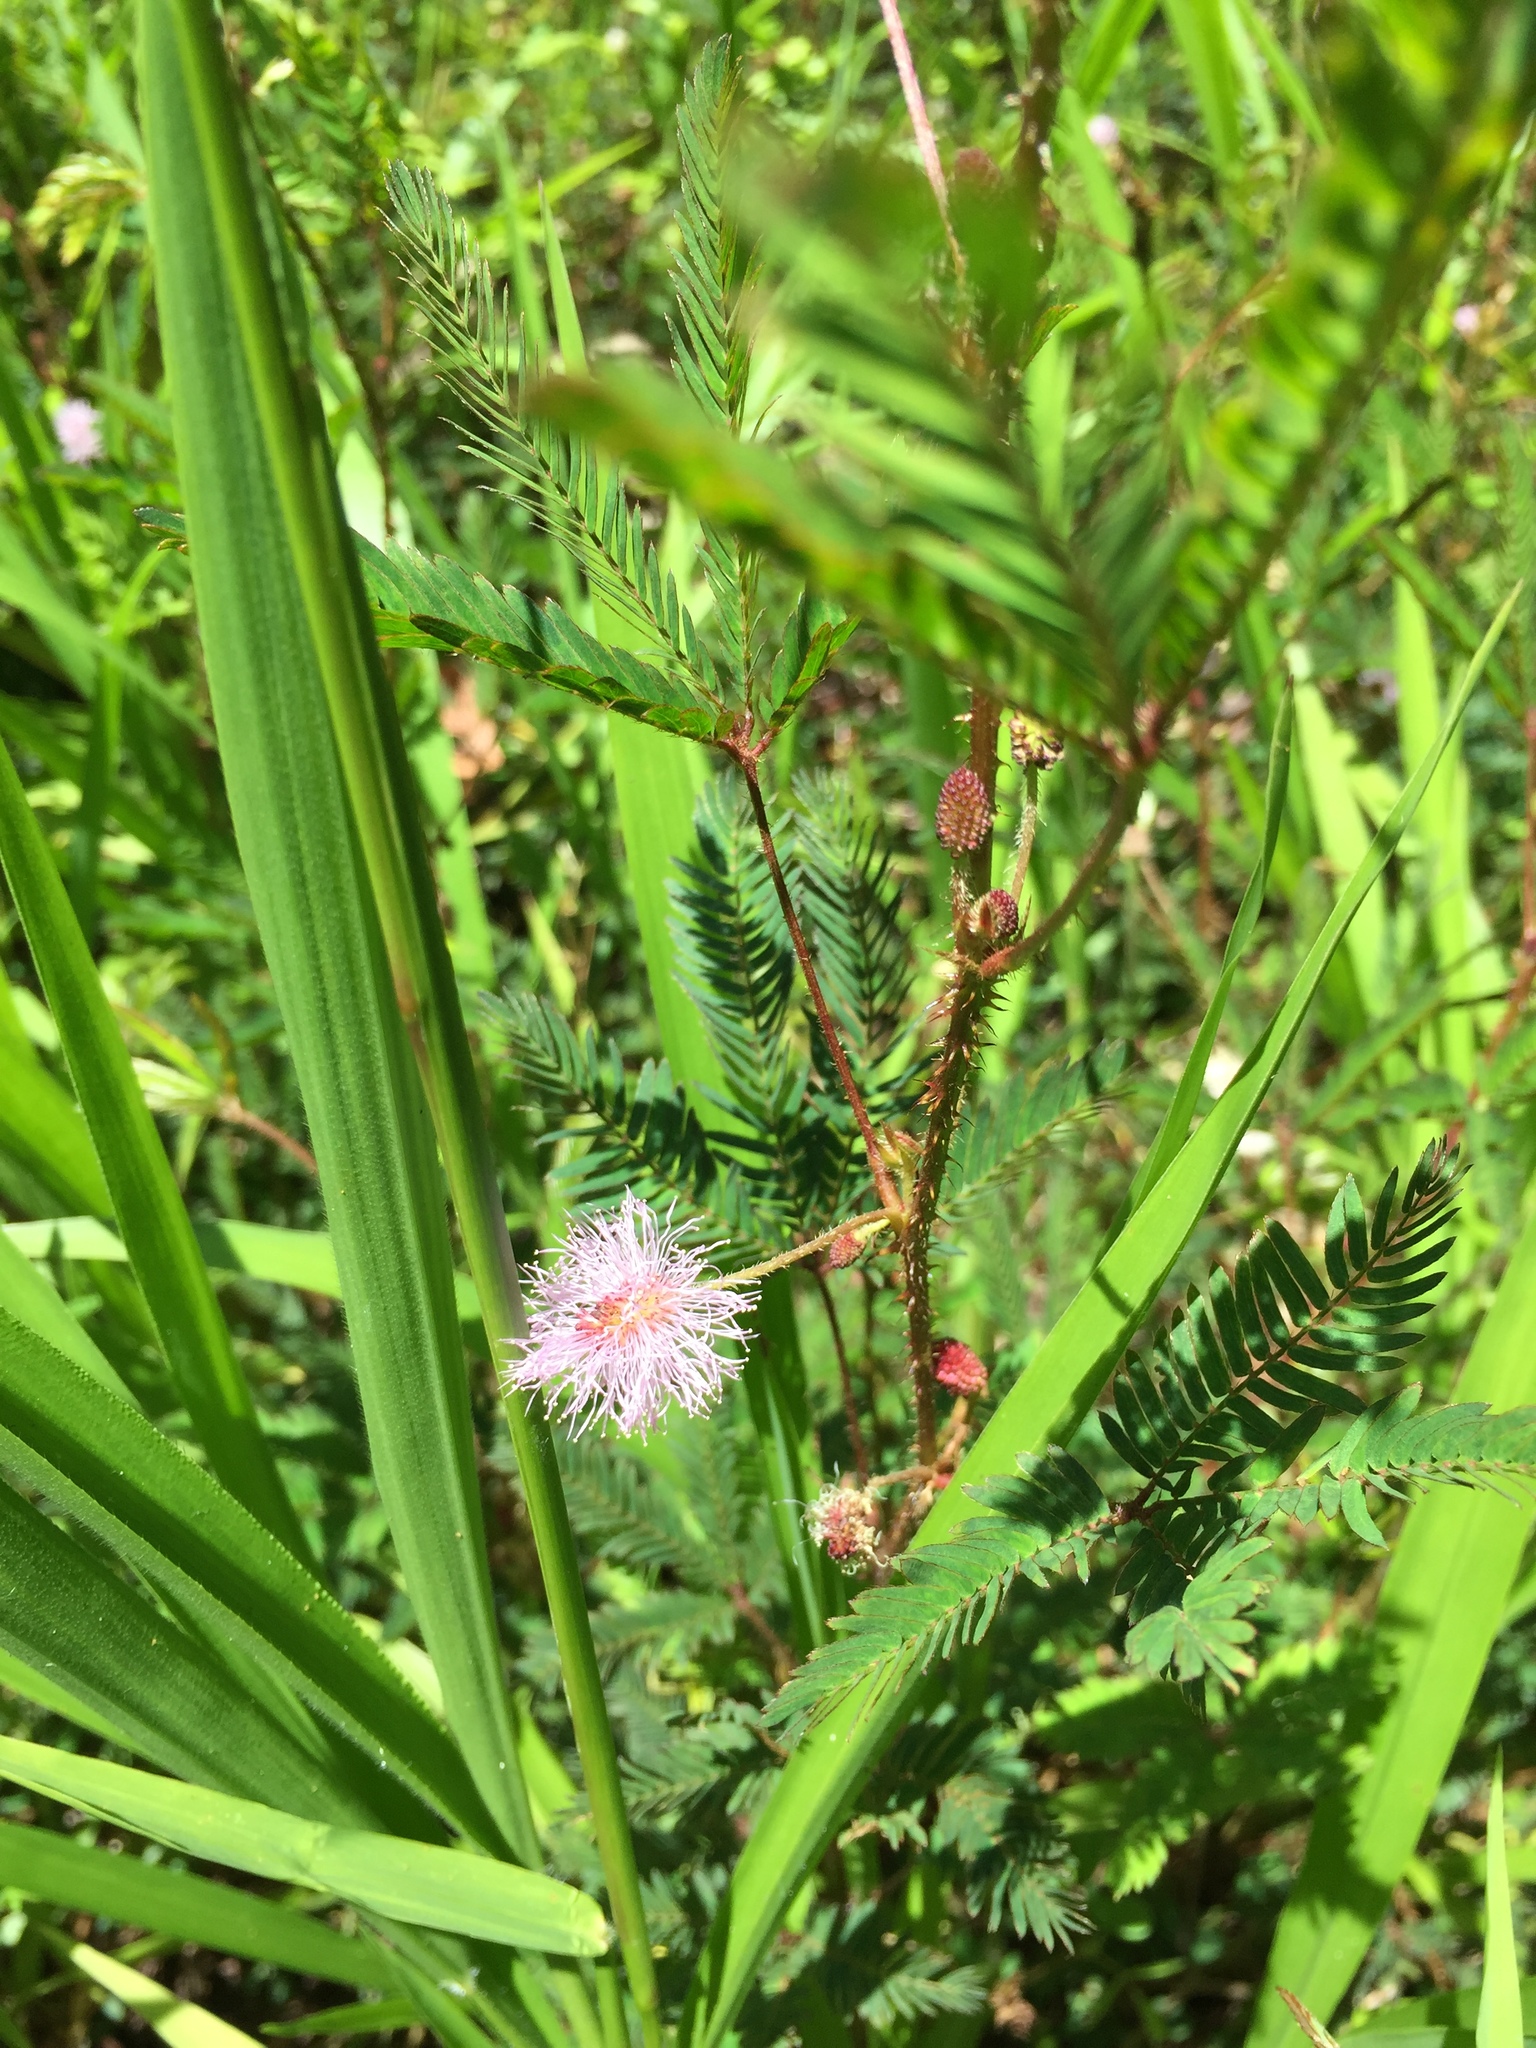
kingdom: Plantae
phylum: Tracheophyta
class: Magnoliopsida
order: Fabales
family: Fabaceae
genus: Mimosa
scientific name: Mimosa pudica
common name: Sensitive plant
